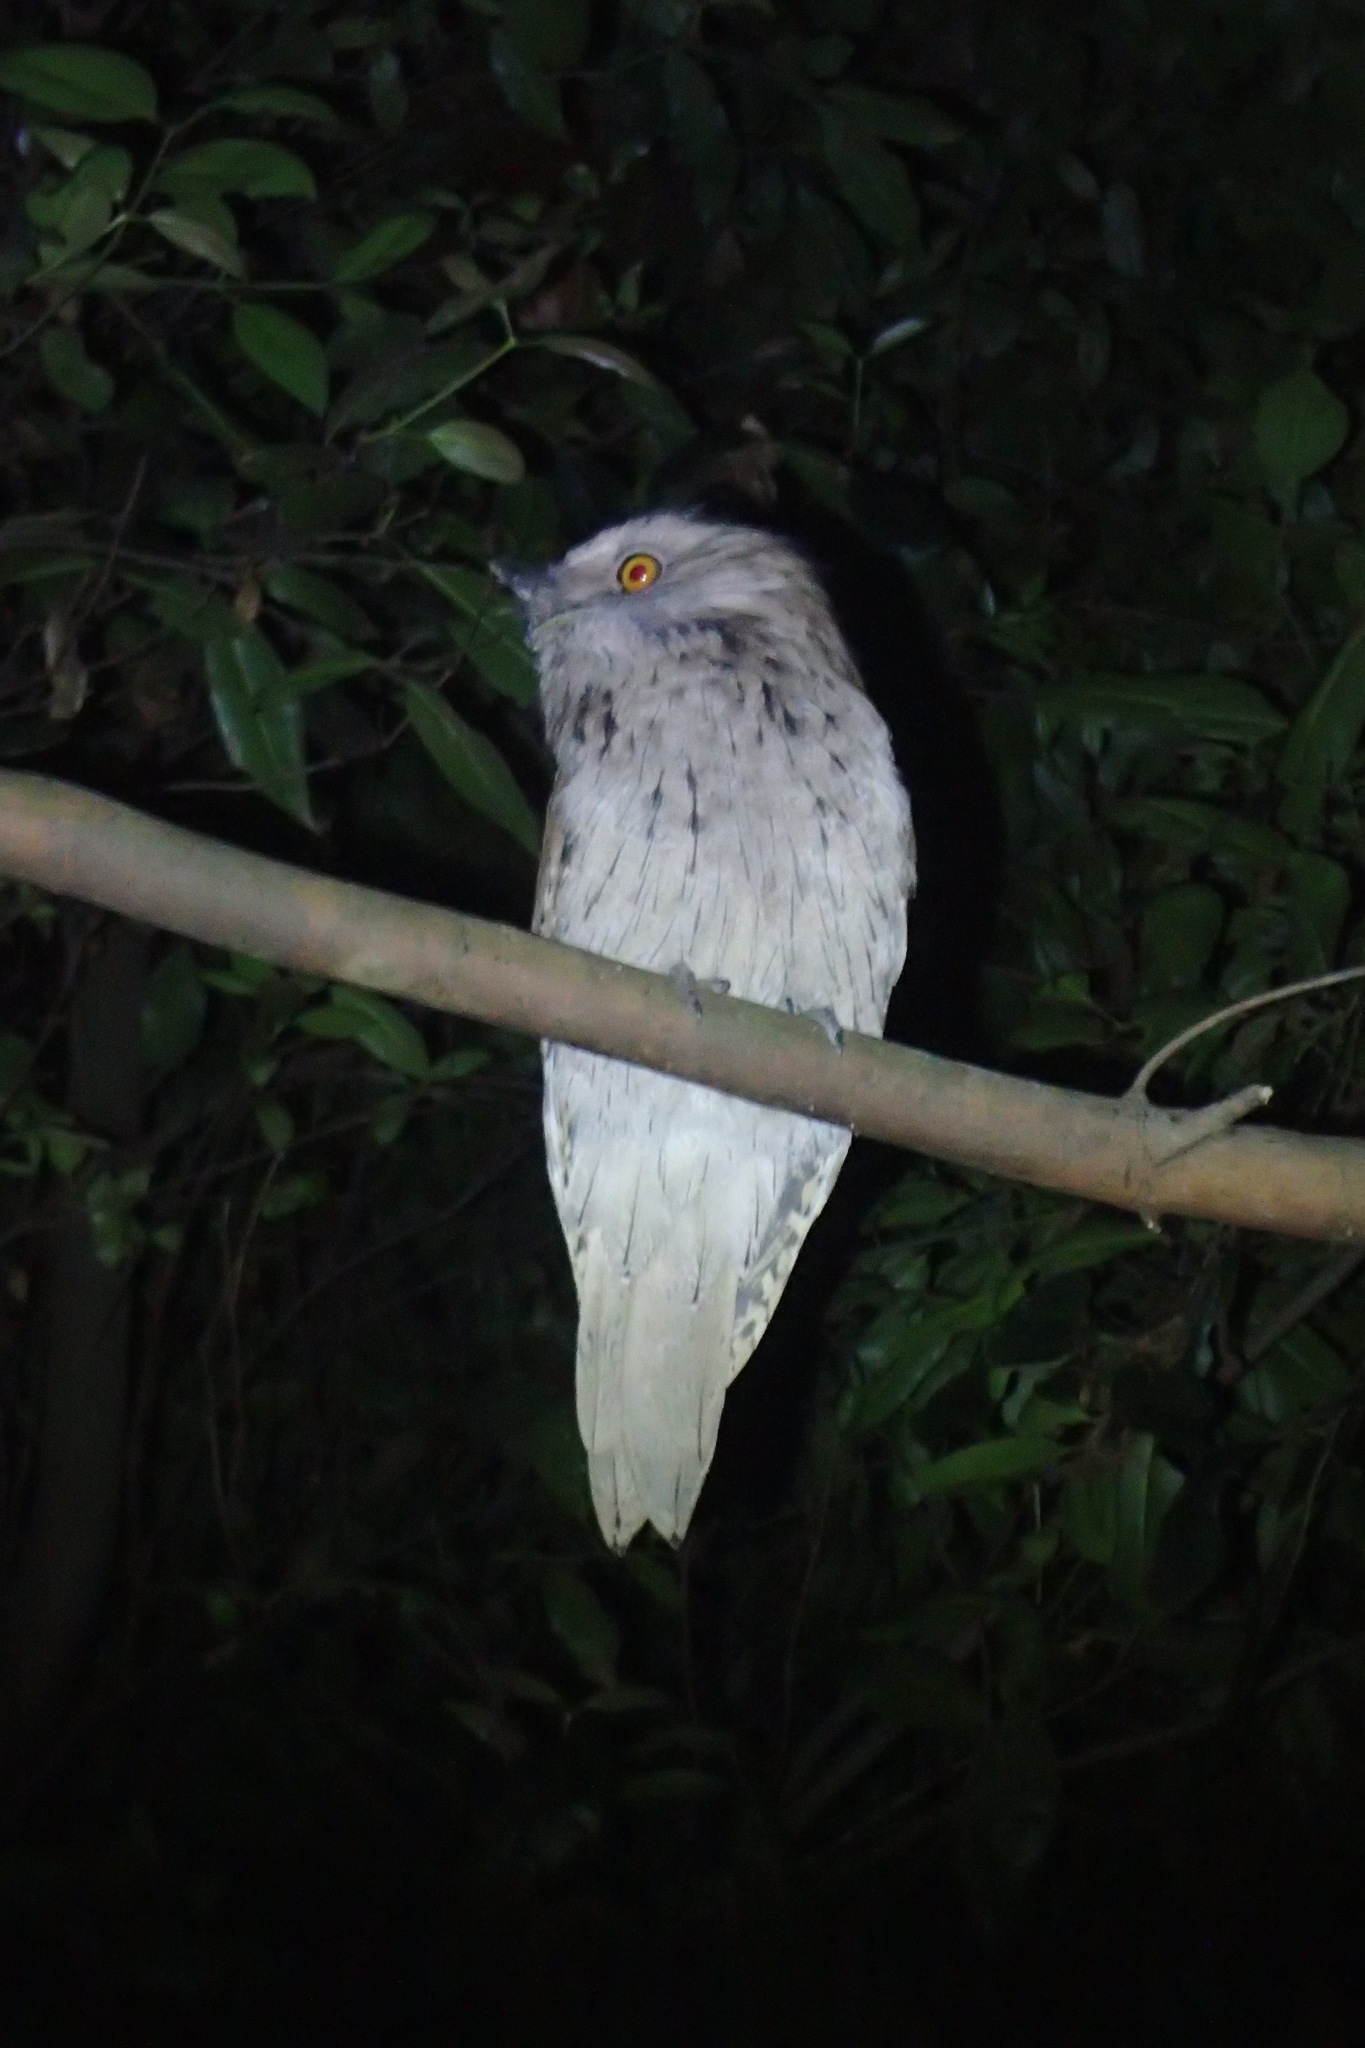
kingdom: Animalia
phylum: Chordata
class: Aves
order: Caprimulgiformes
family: Podargidae
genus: Podargus
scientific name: Podargus strigoides
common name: Tawny frogmouth
